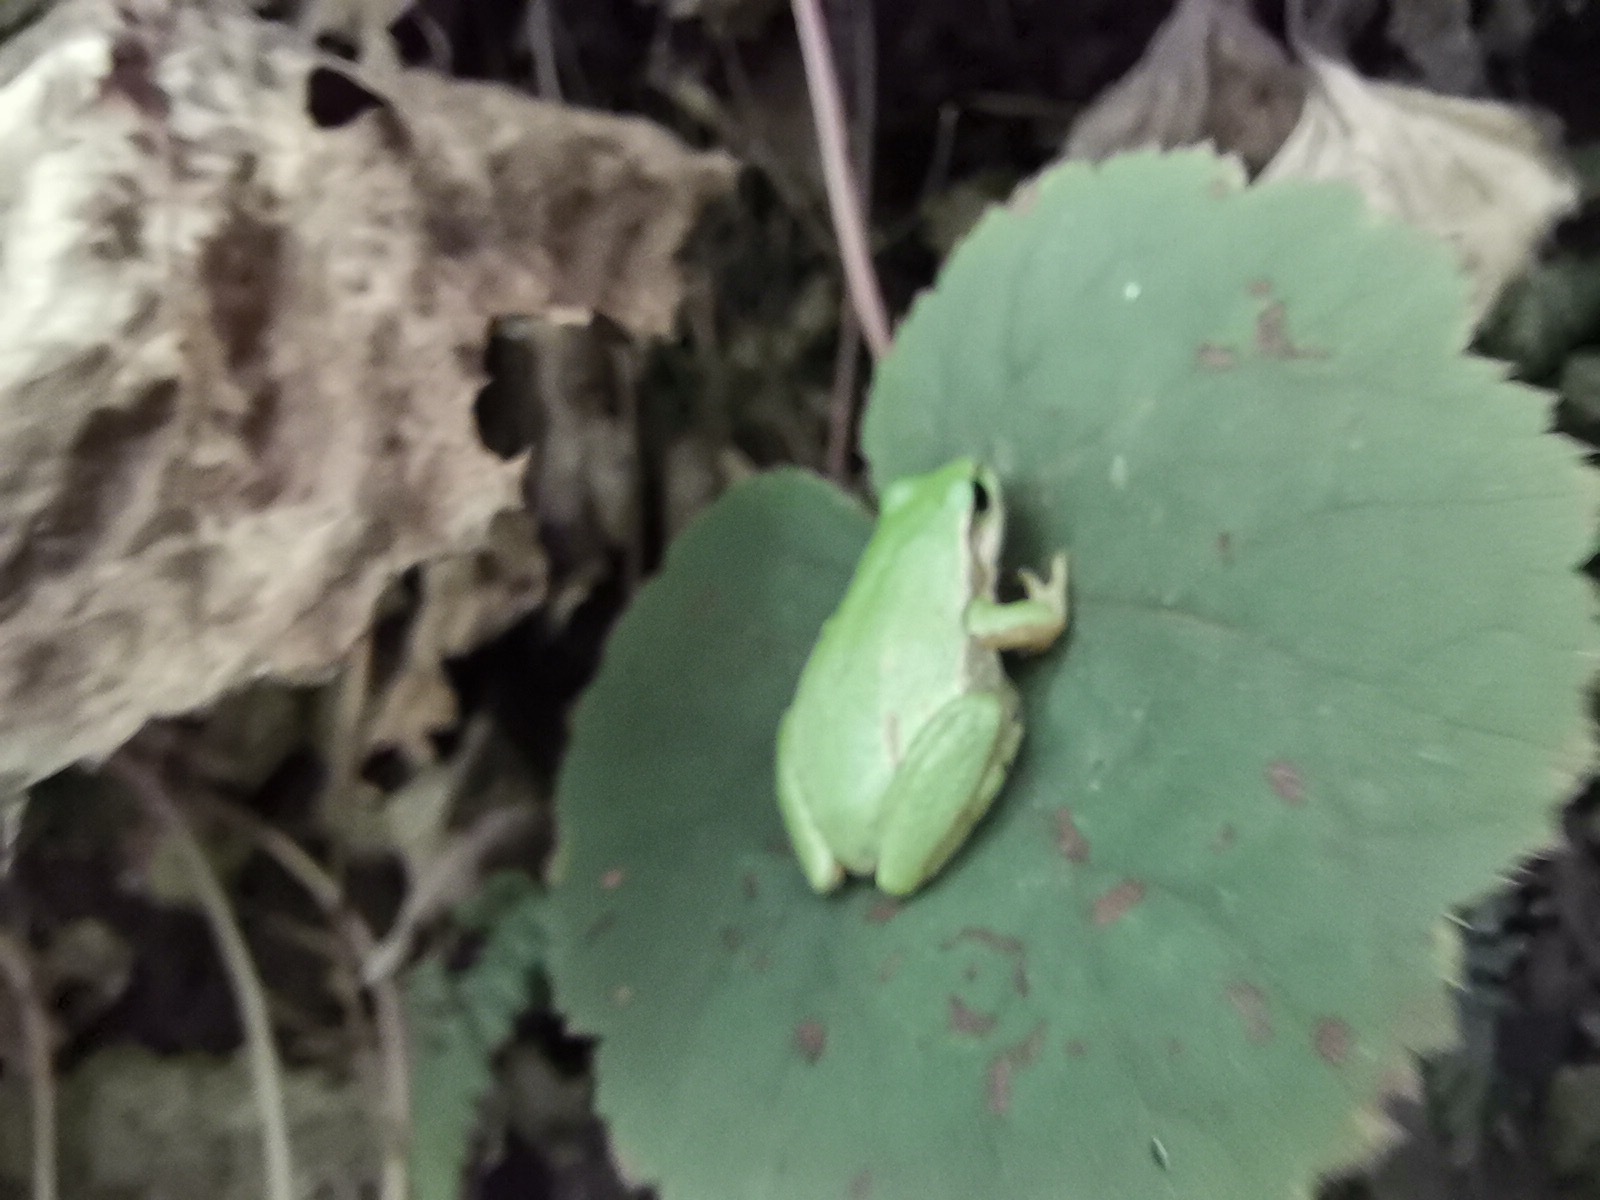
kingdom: Animalia
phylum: Chordata
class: Amphibia
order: Anura
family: Hylidae
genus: Dryophytes
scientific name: Dryophytes eximius
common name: Mountain treefrog
